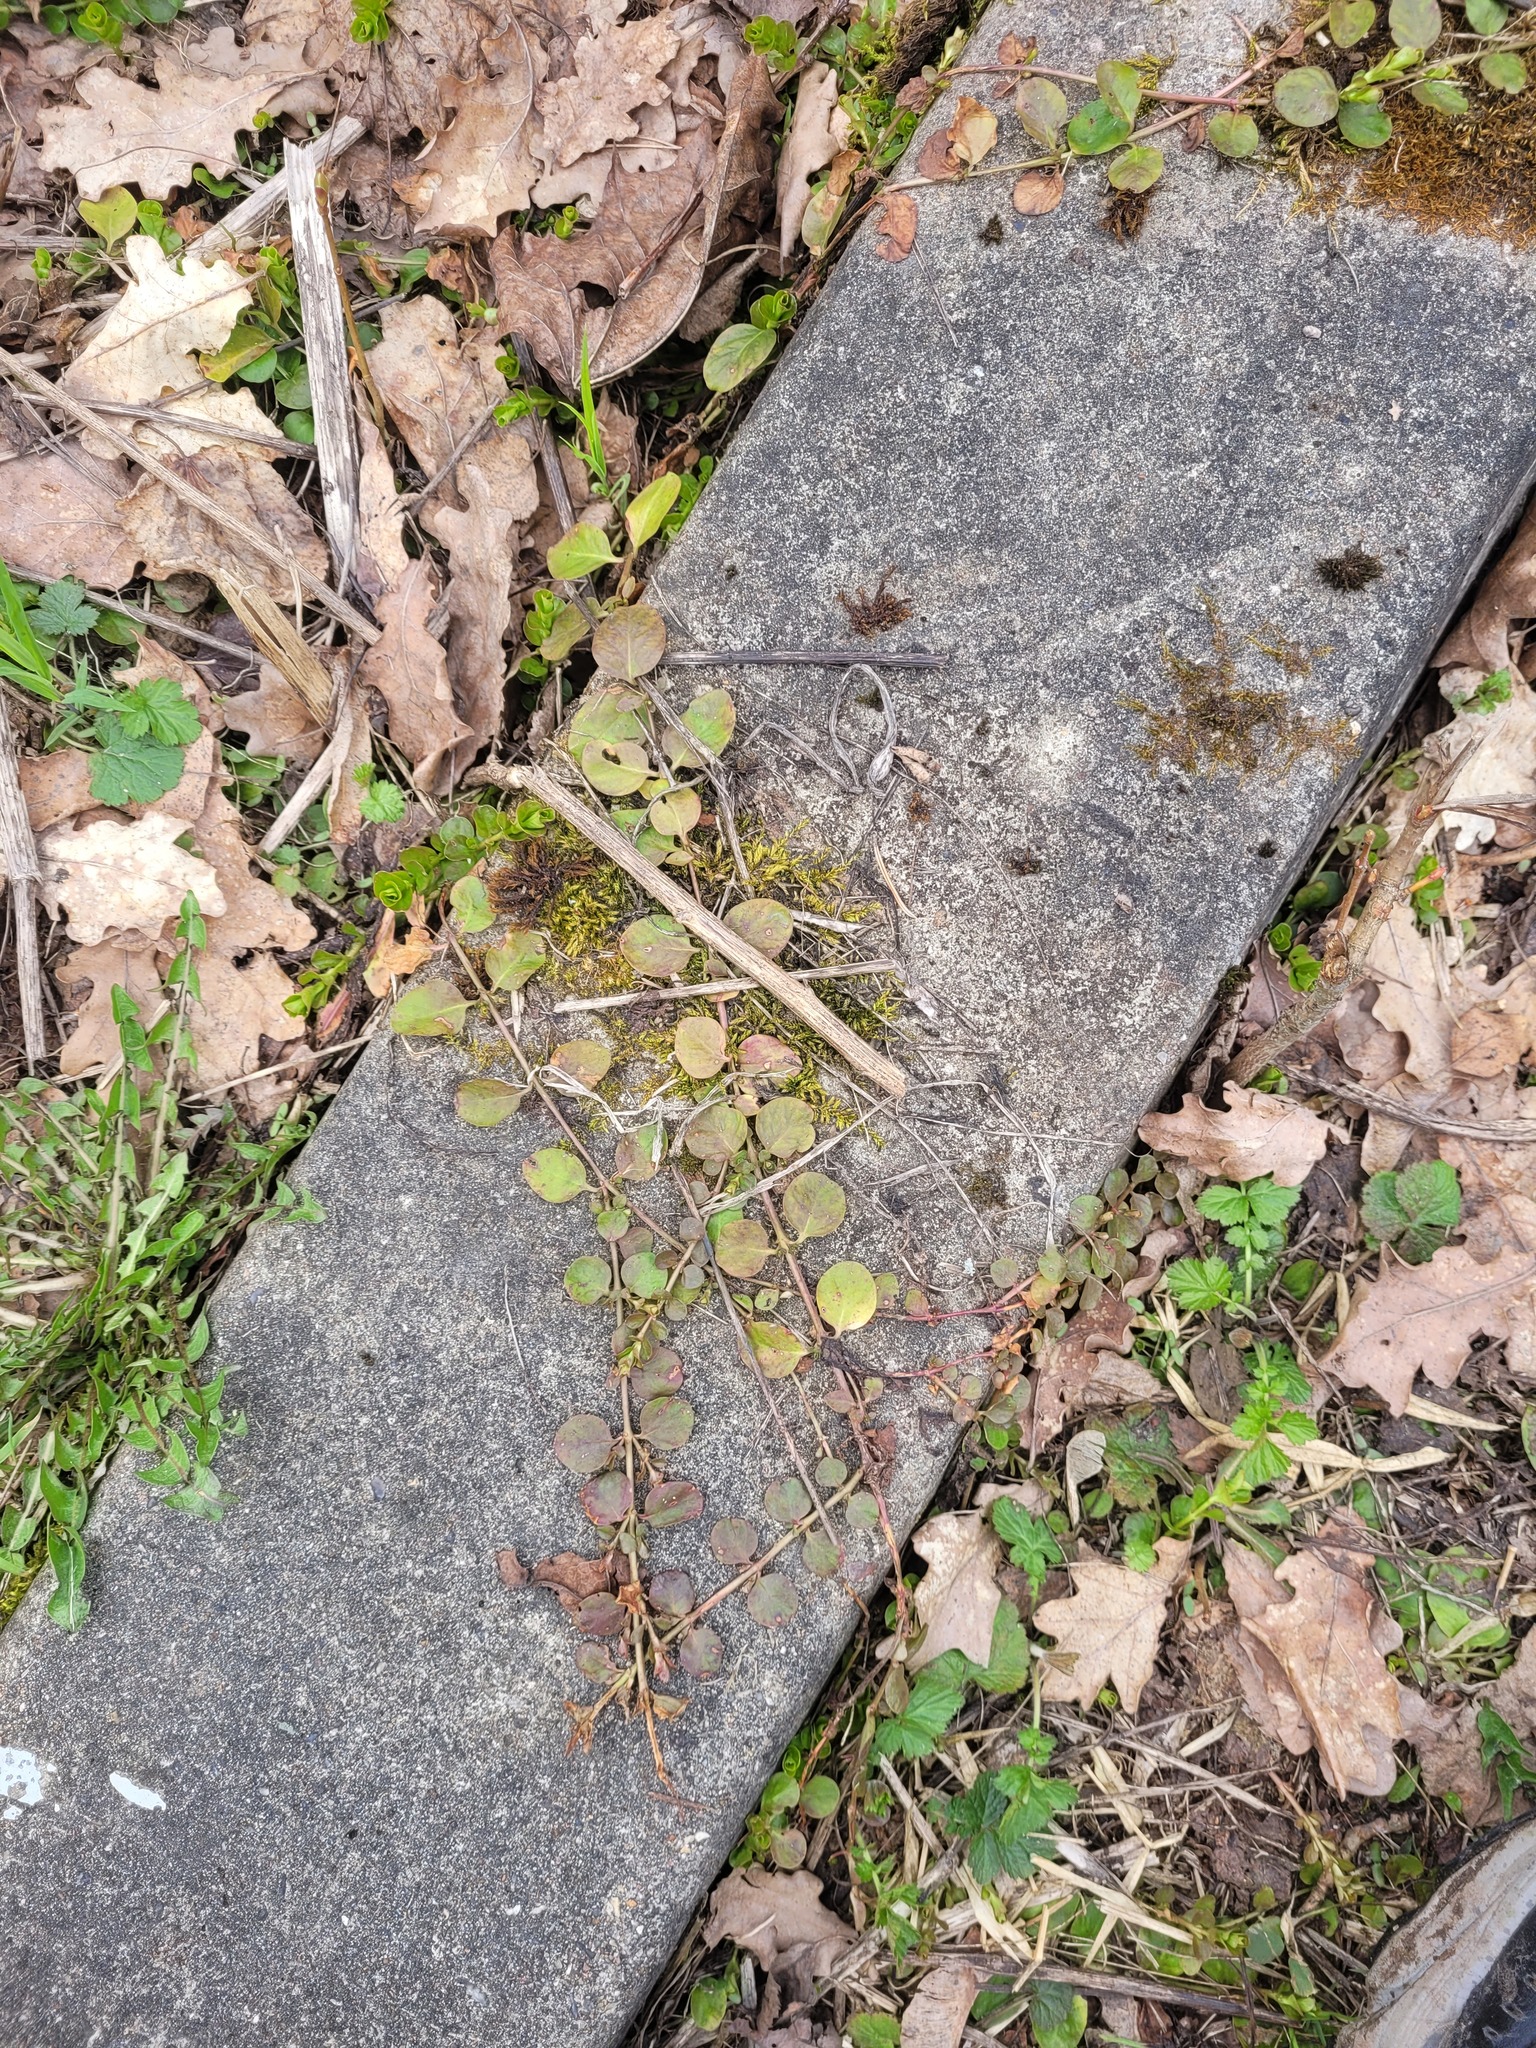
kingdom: Plantae
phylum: Tracheophyta
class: Magnoliopsida
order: Ericales
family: Primulaceae
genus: Lysimachia
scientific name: Lysimachia nummularia
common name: Moneywort
